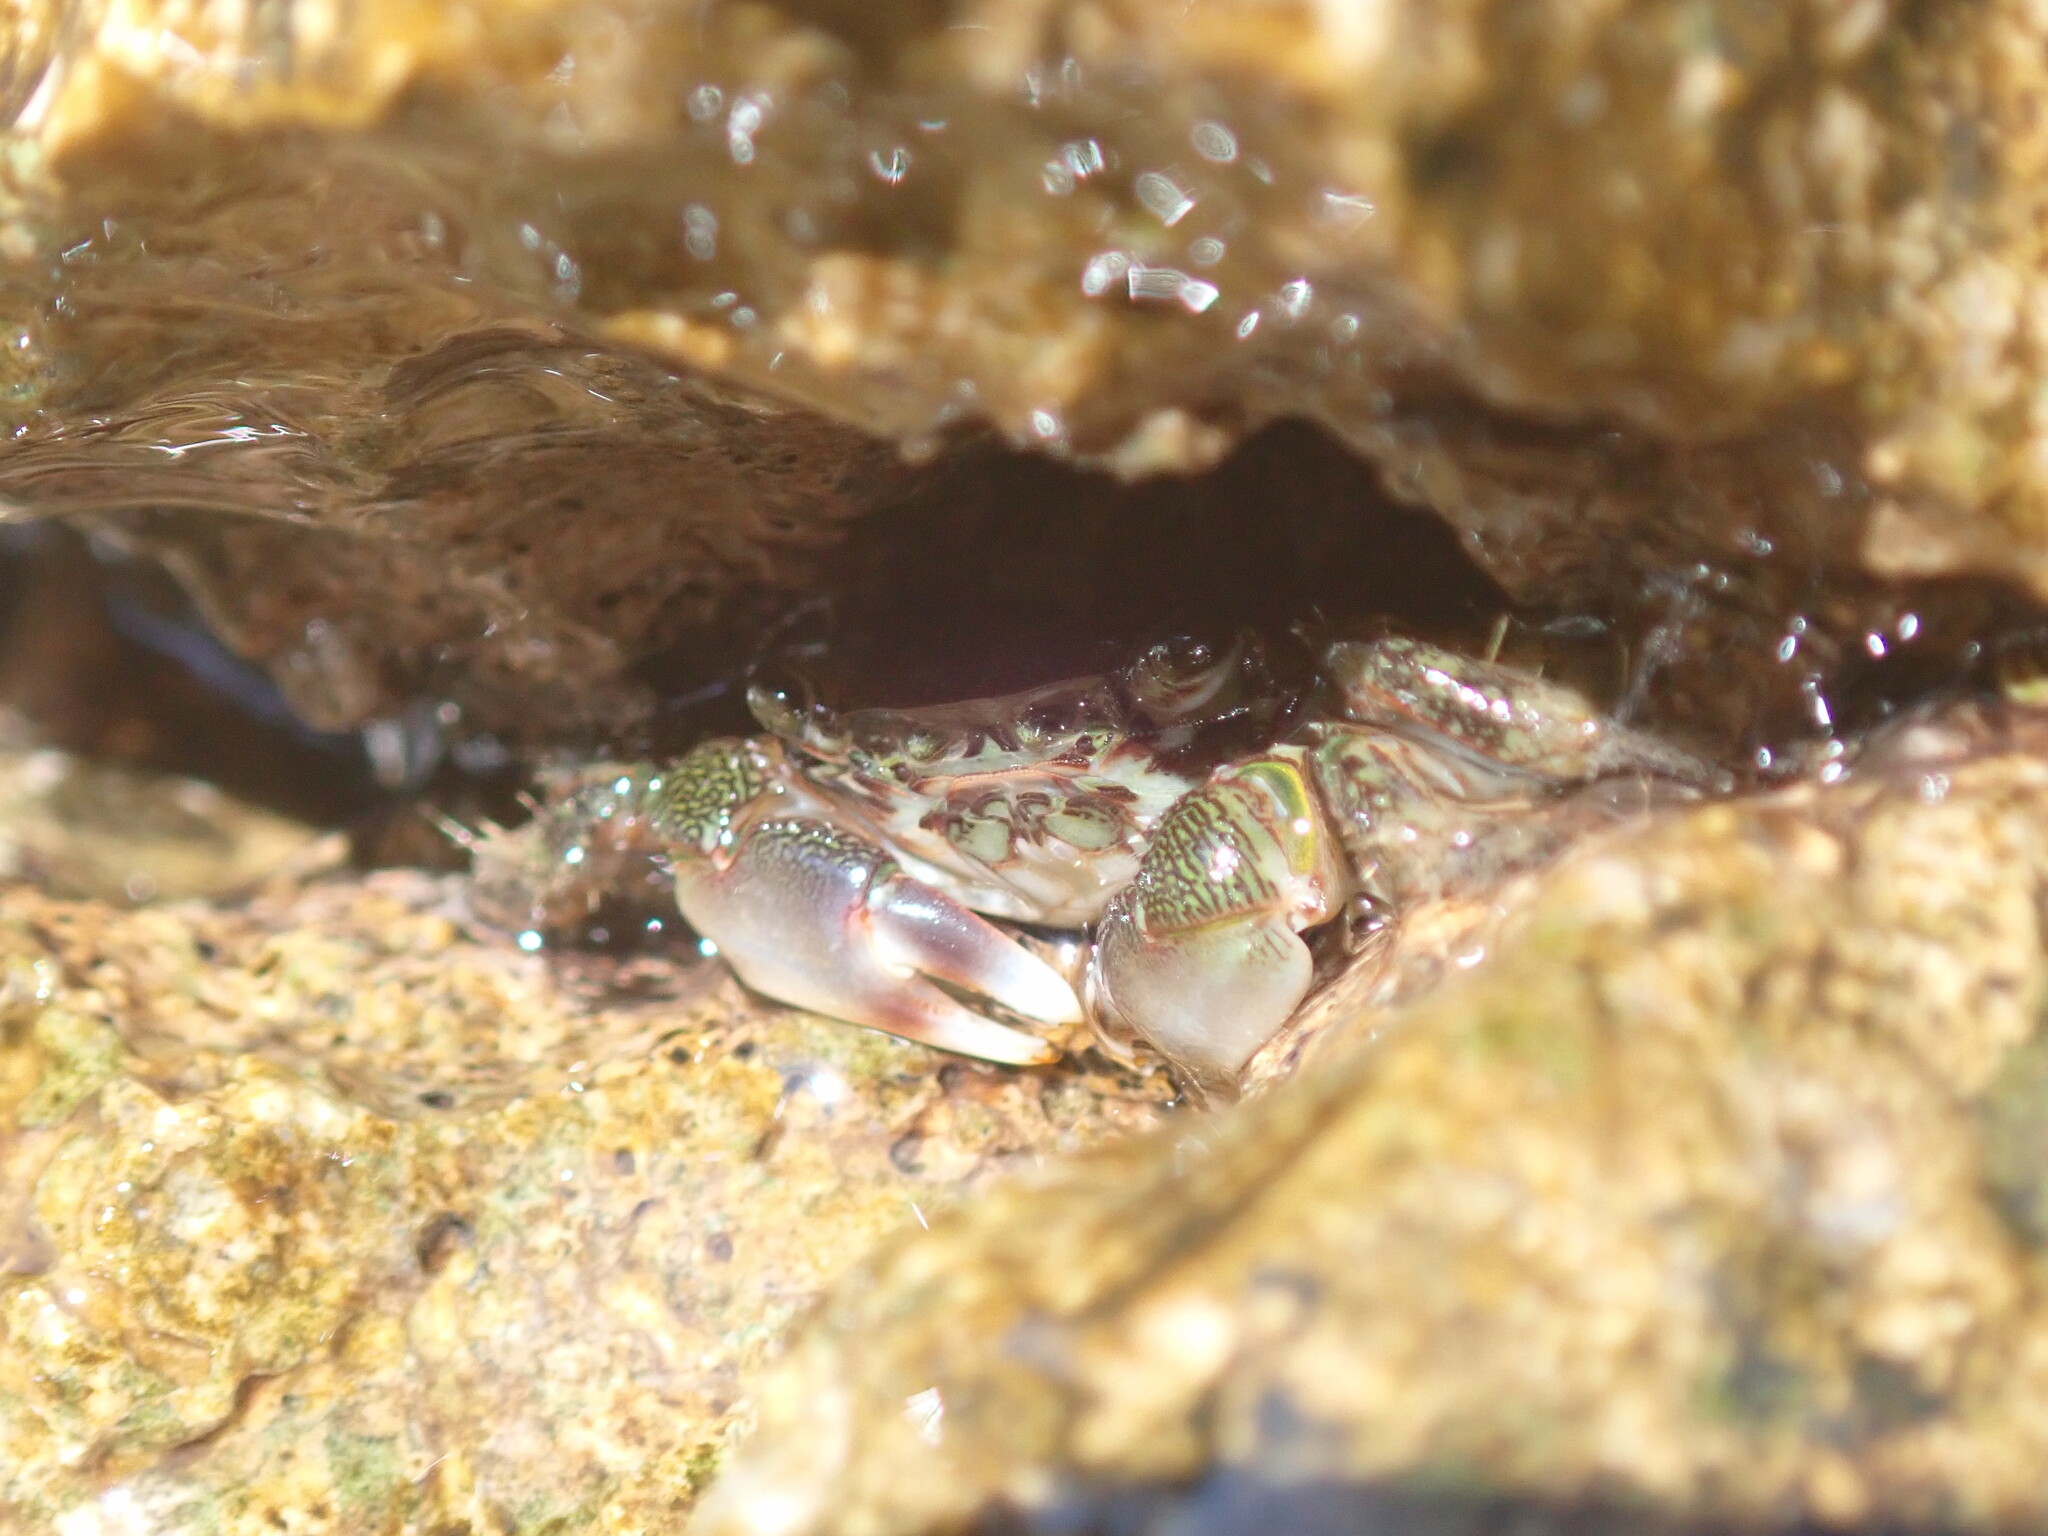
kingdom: Animalia
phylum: Arthropoda
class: Malacostraca
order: Decapoda
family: Grapsidae
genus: Pachygrapsus
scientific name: Pachygrapsus marmoratus
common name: Marbled rock crab
